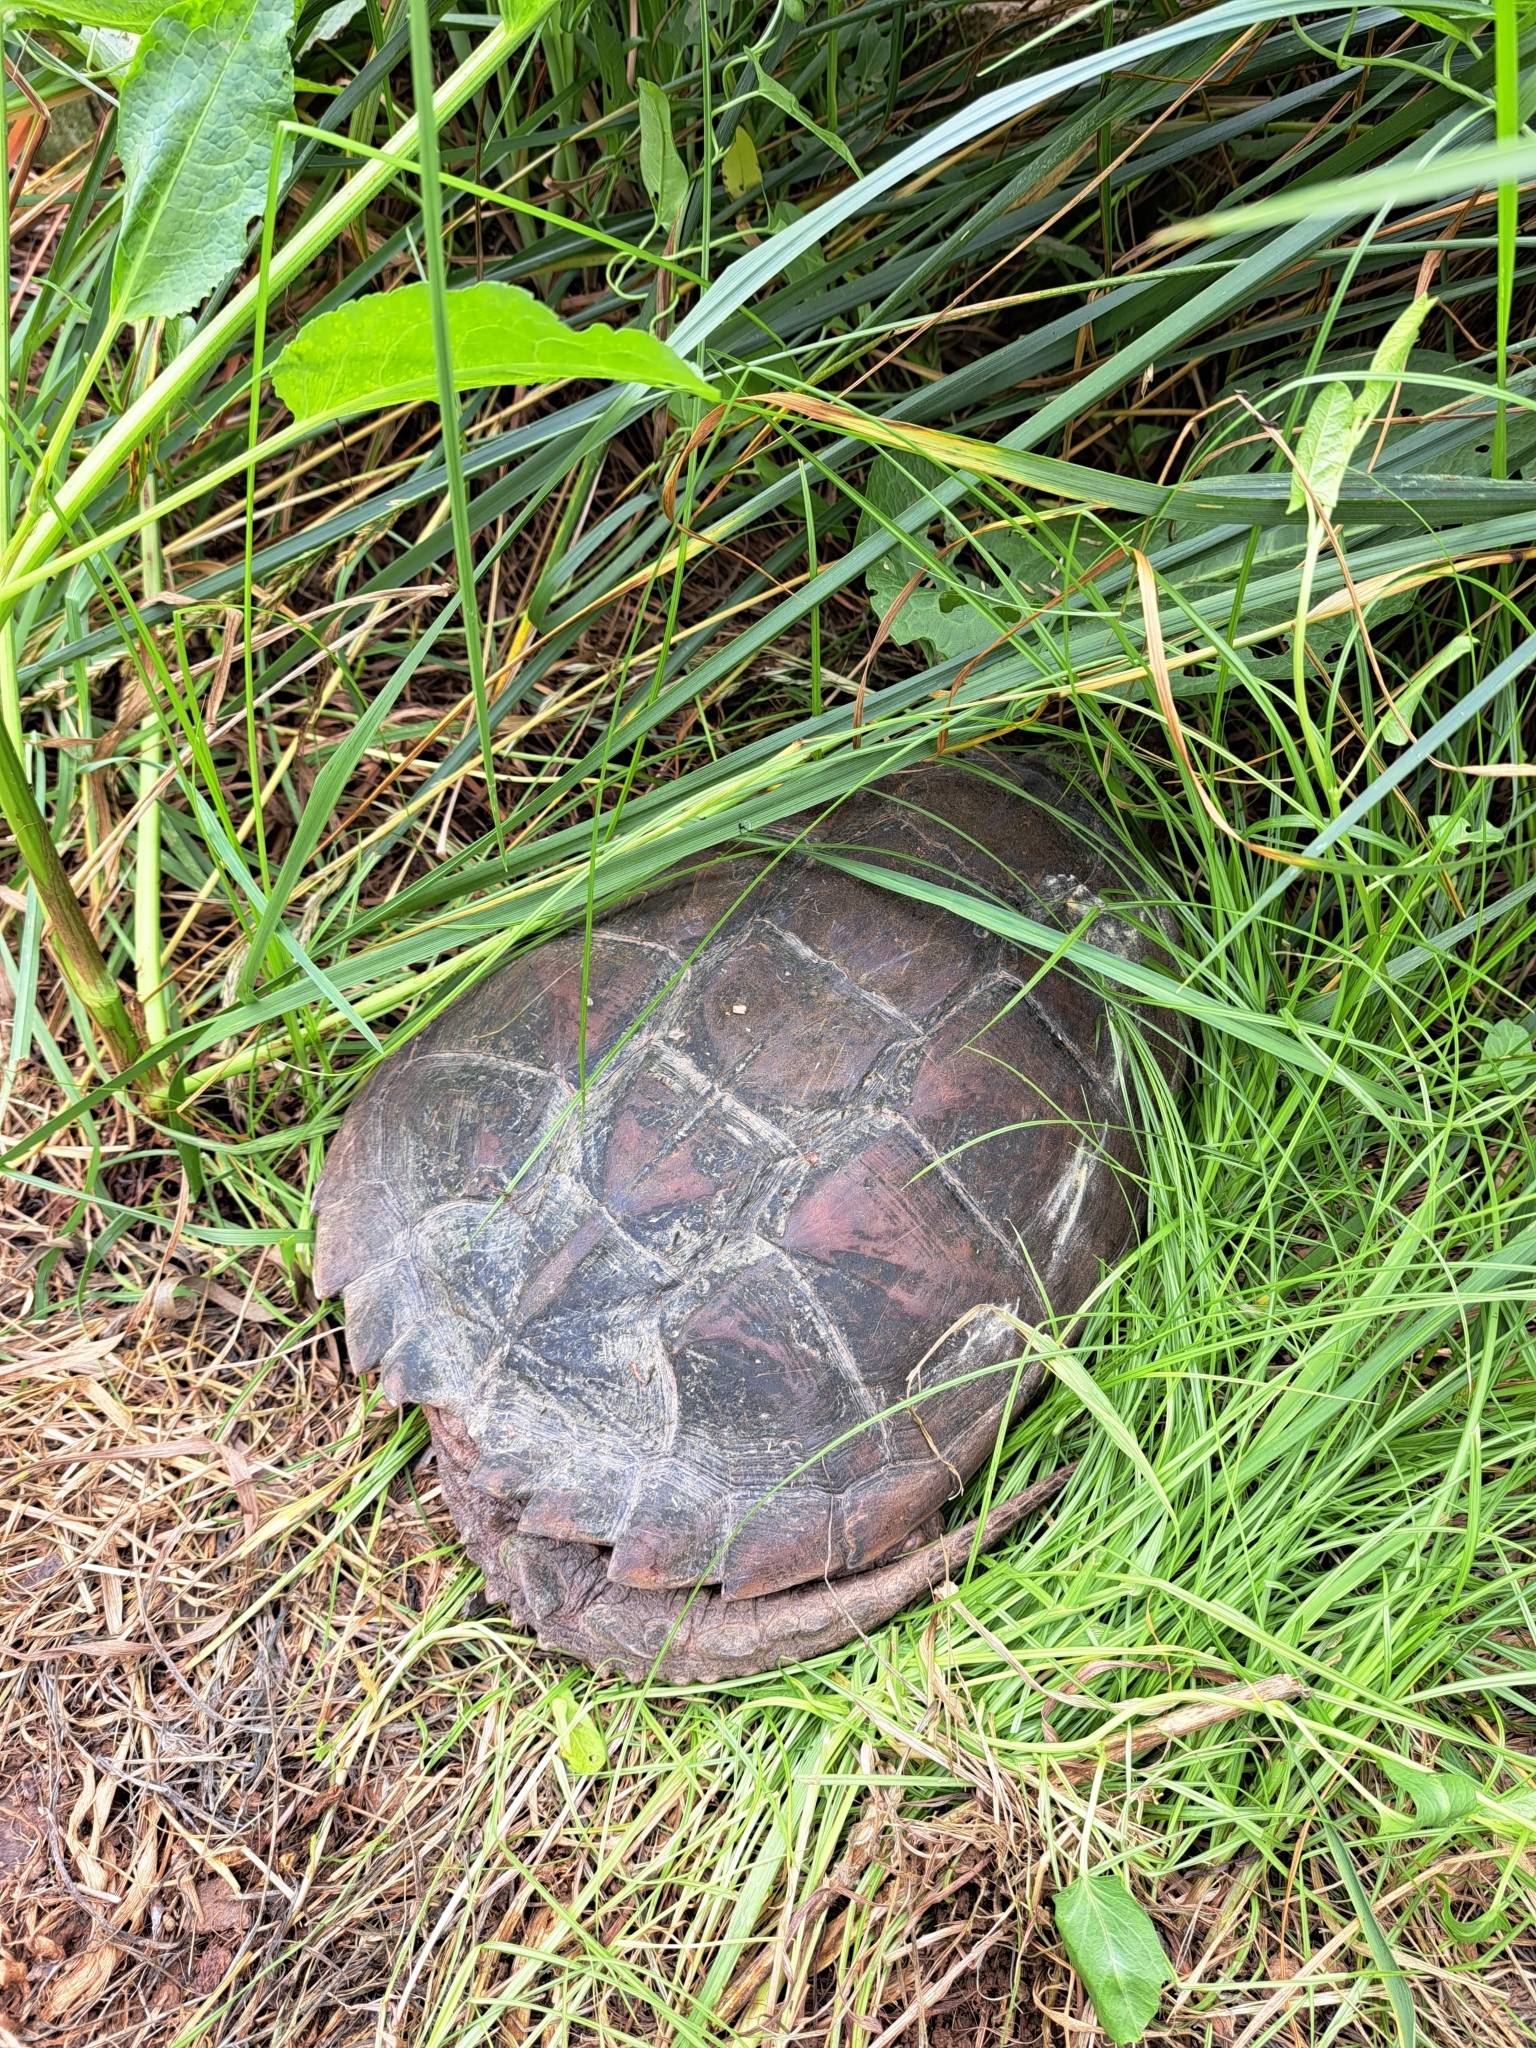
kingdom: Animalia
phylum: Chordata
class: Testudines
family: Chelydridae
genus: Chelydra
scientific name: Chelydra serpentina
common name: Common snapping turtle
